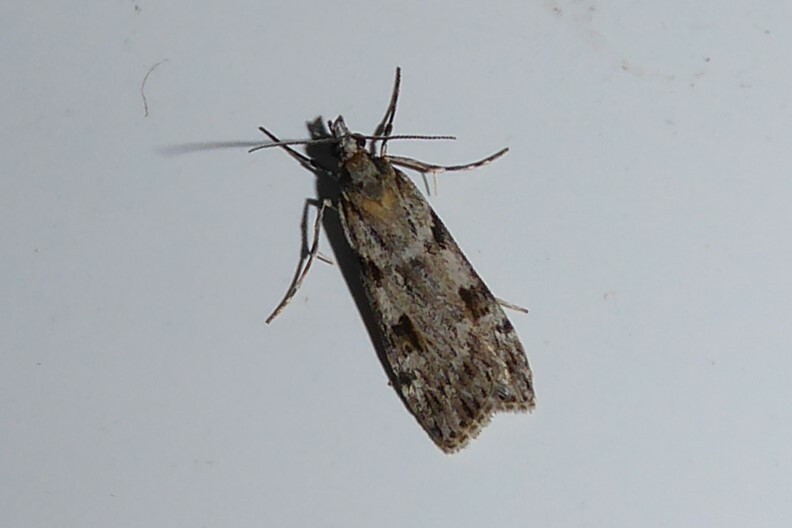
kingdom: Animalia
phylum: Arthropoda
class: Insecta
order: Lepidoptera
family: Crambidae
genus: Scoparia
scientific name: Scoparia halopis
